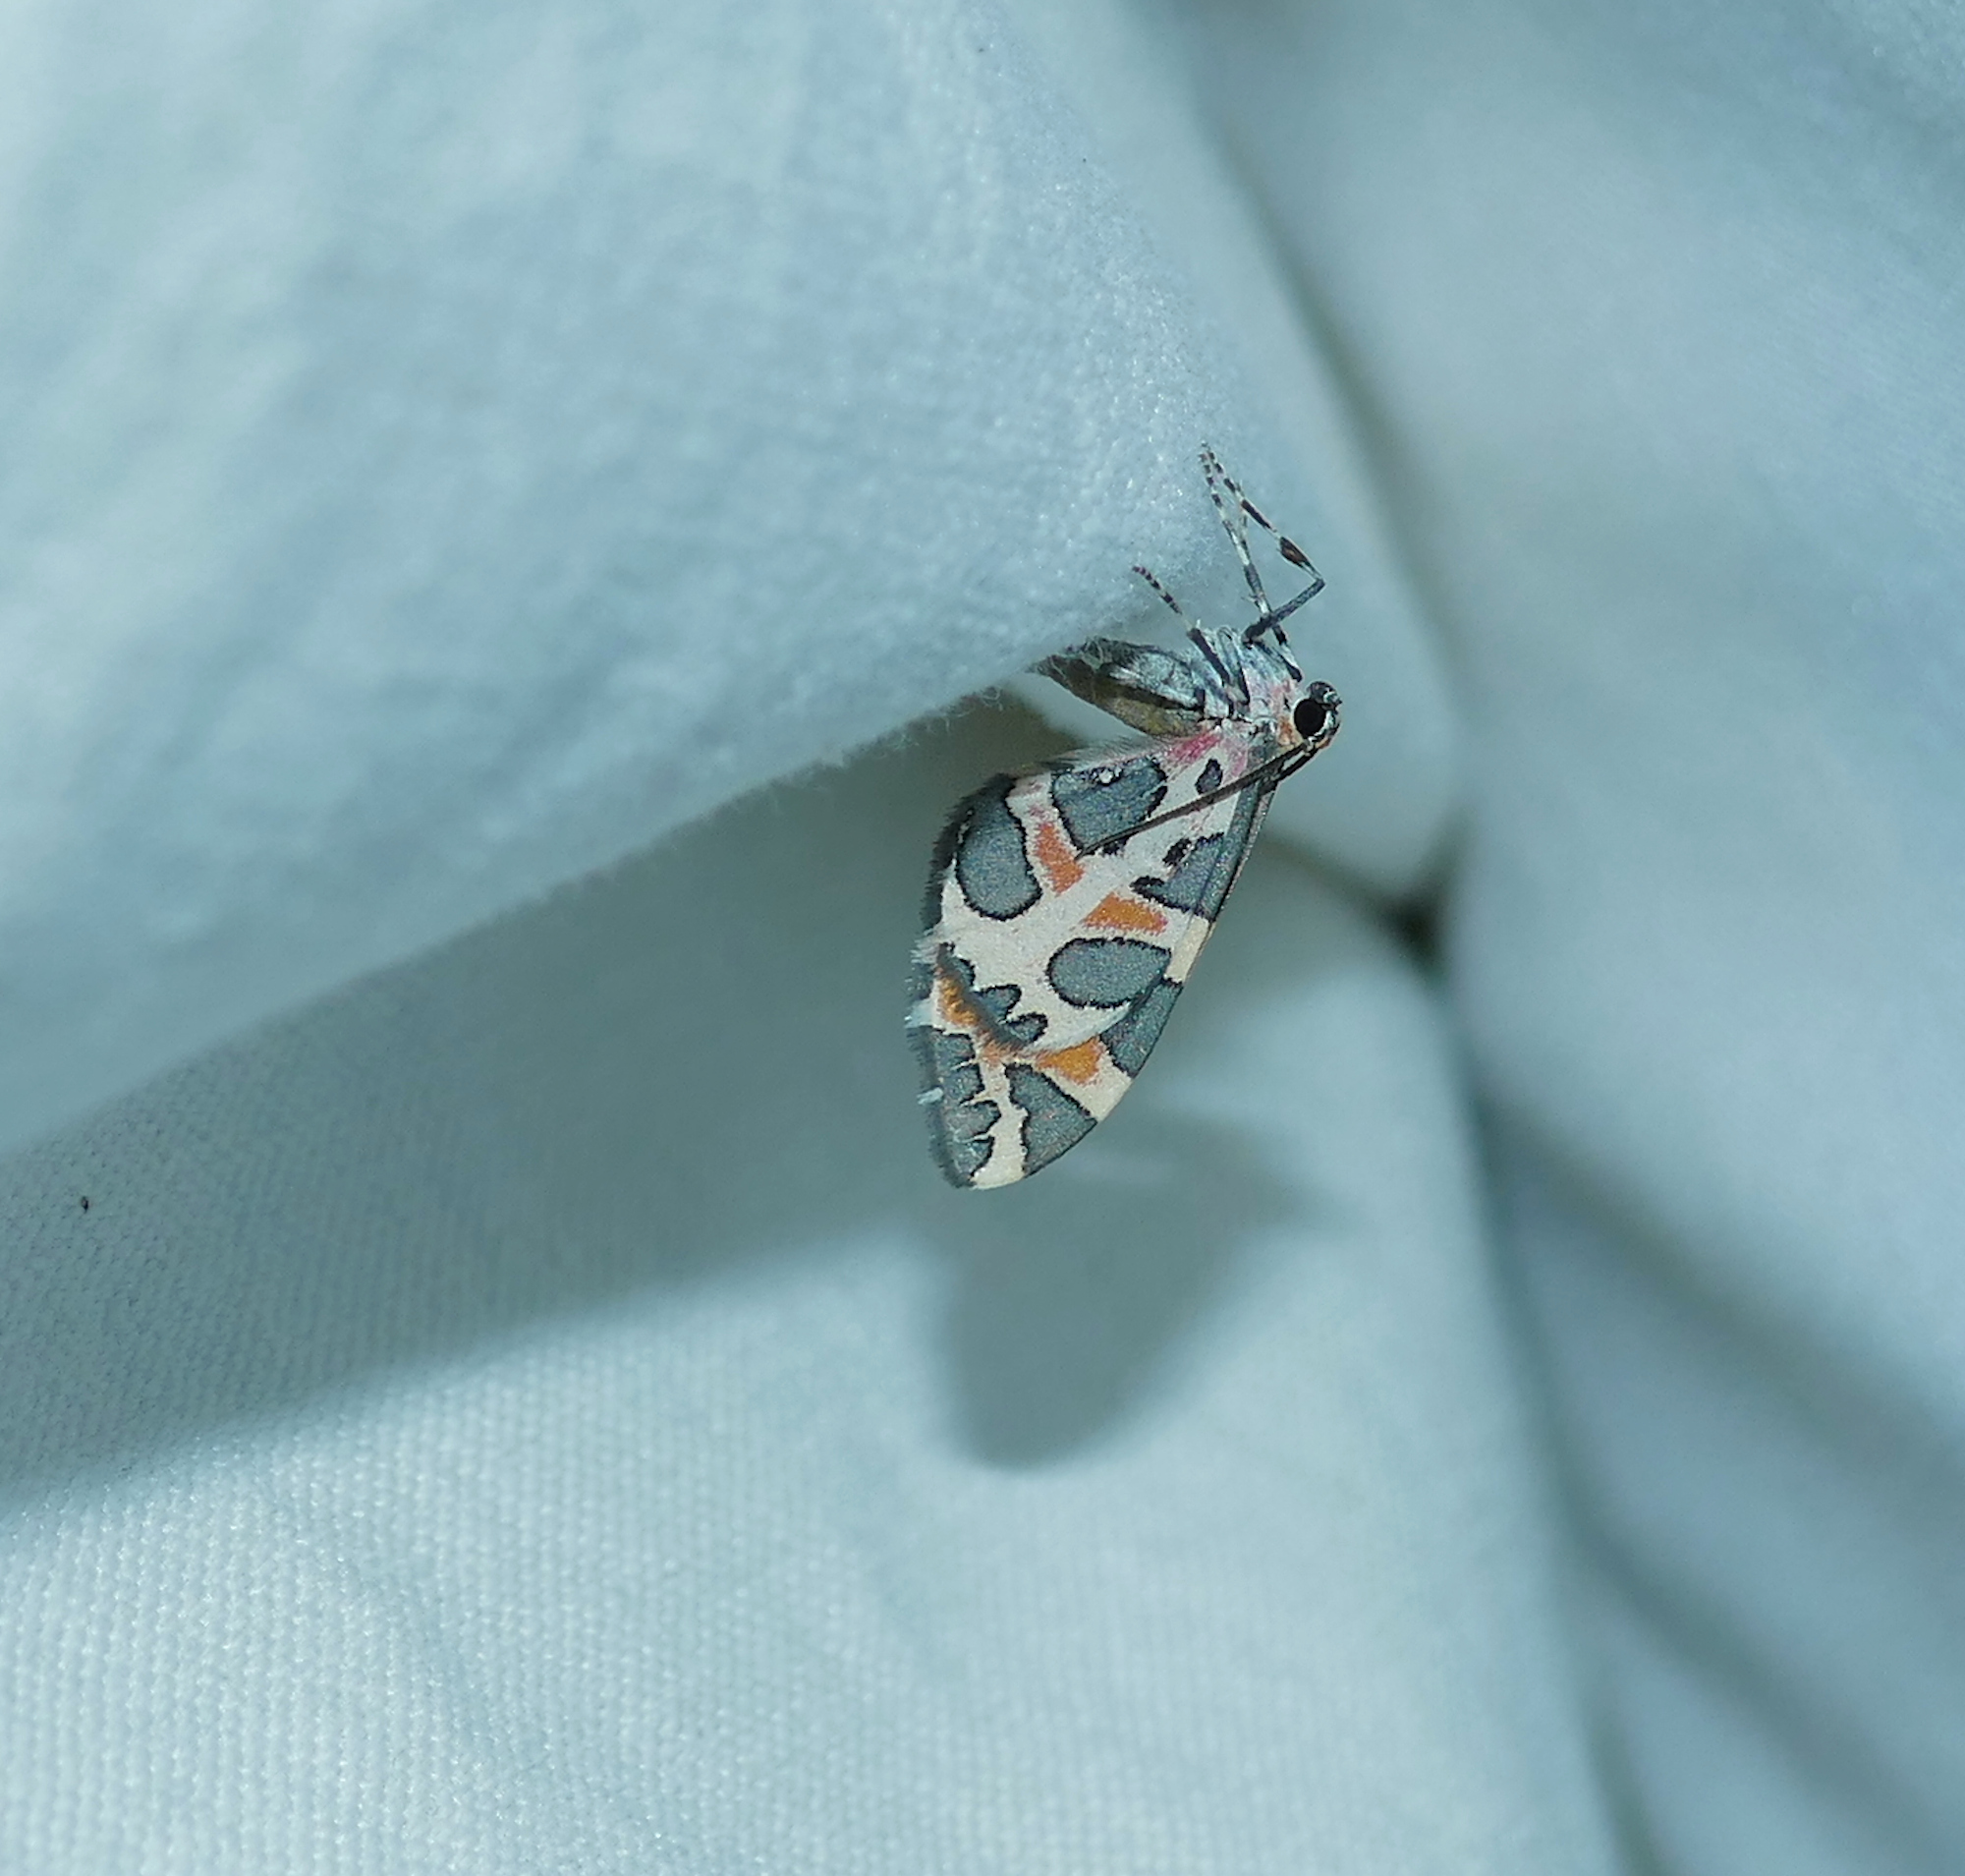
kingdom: Animalia
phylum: Arthropoda
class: Insecta
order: Lepidoptera
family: Geometridae
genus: Stamnodes
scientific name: Stamnodes deceptiva
